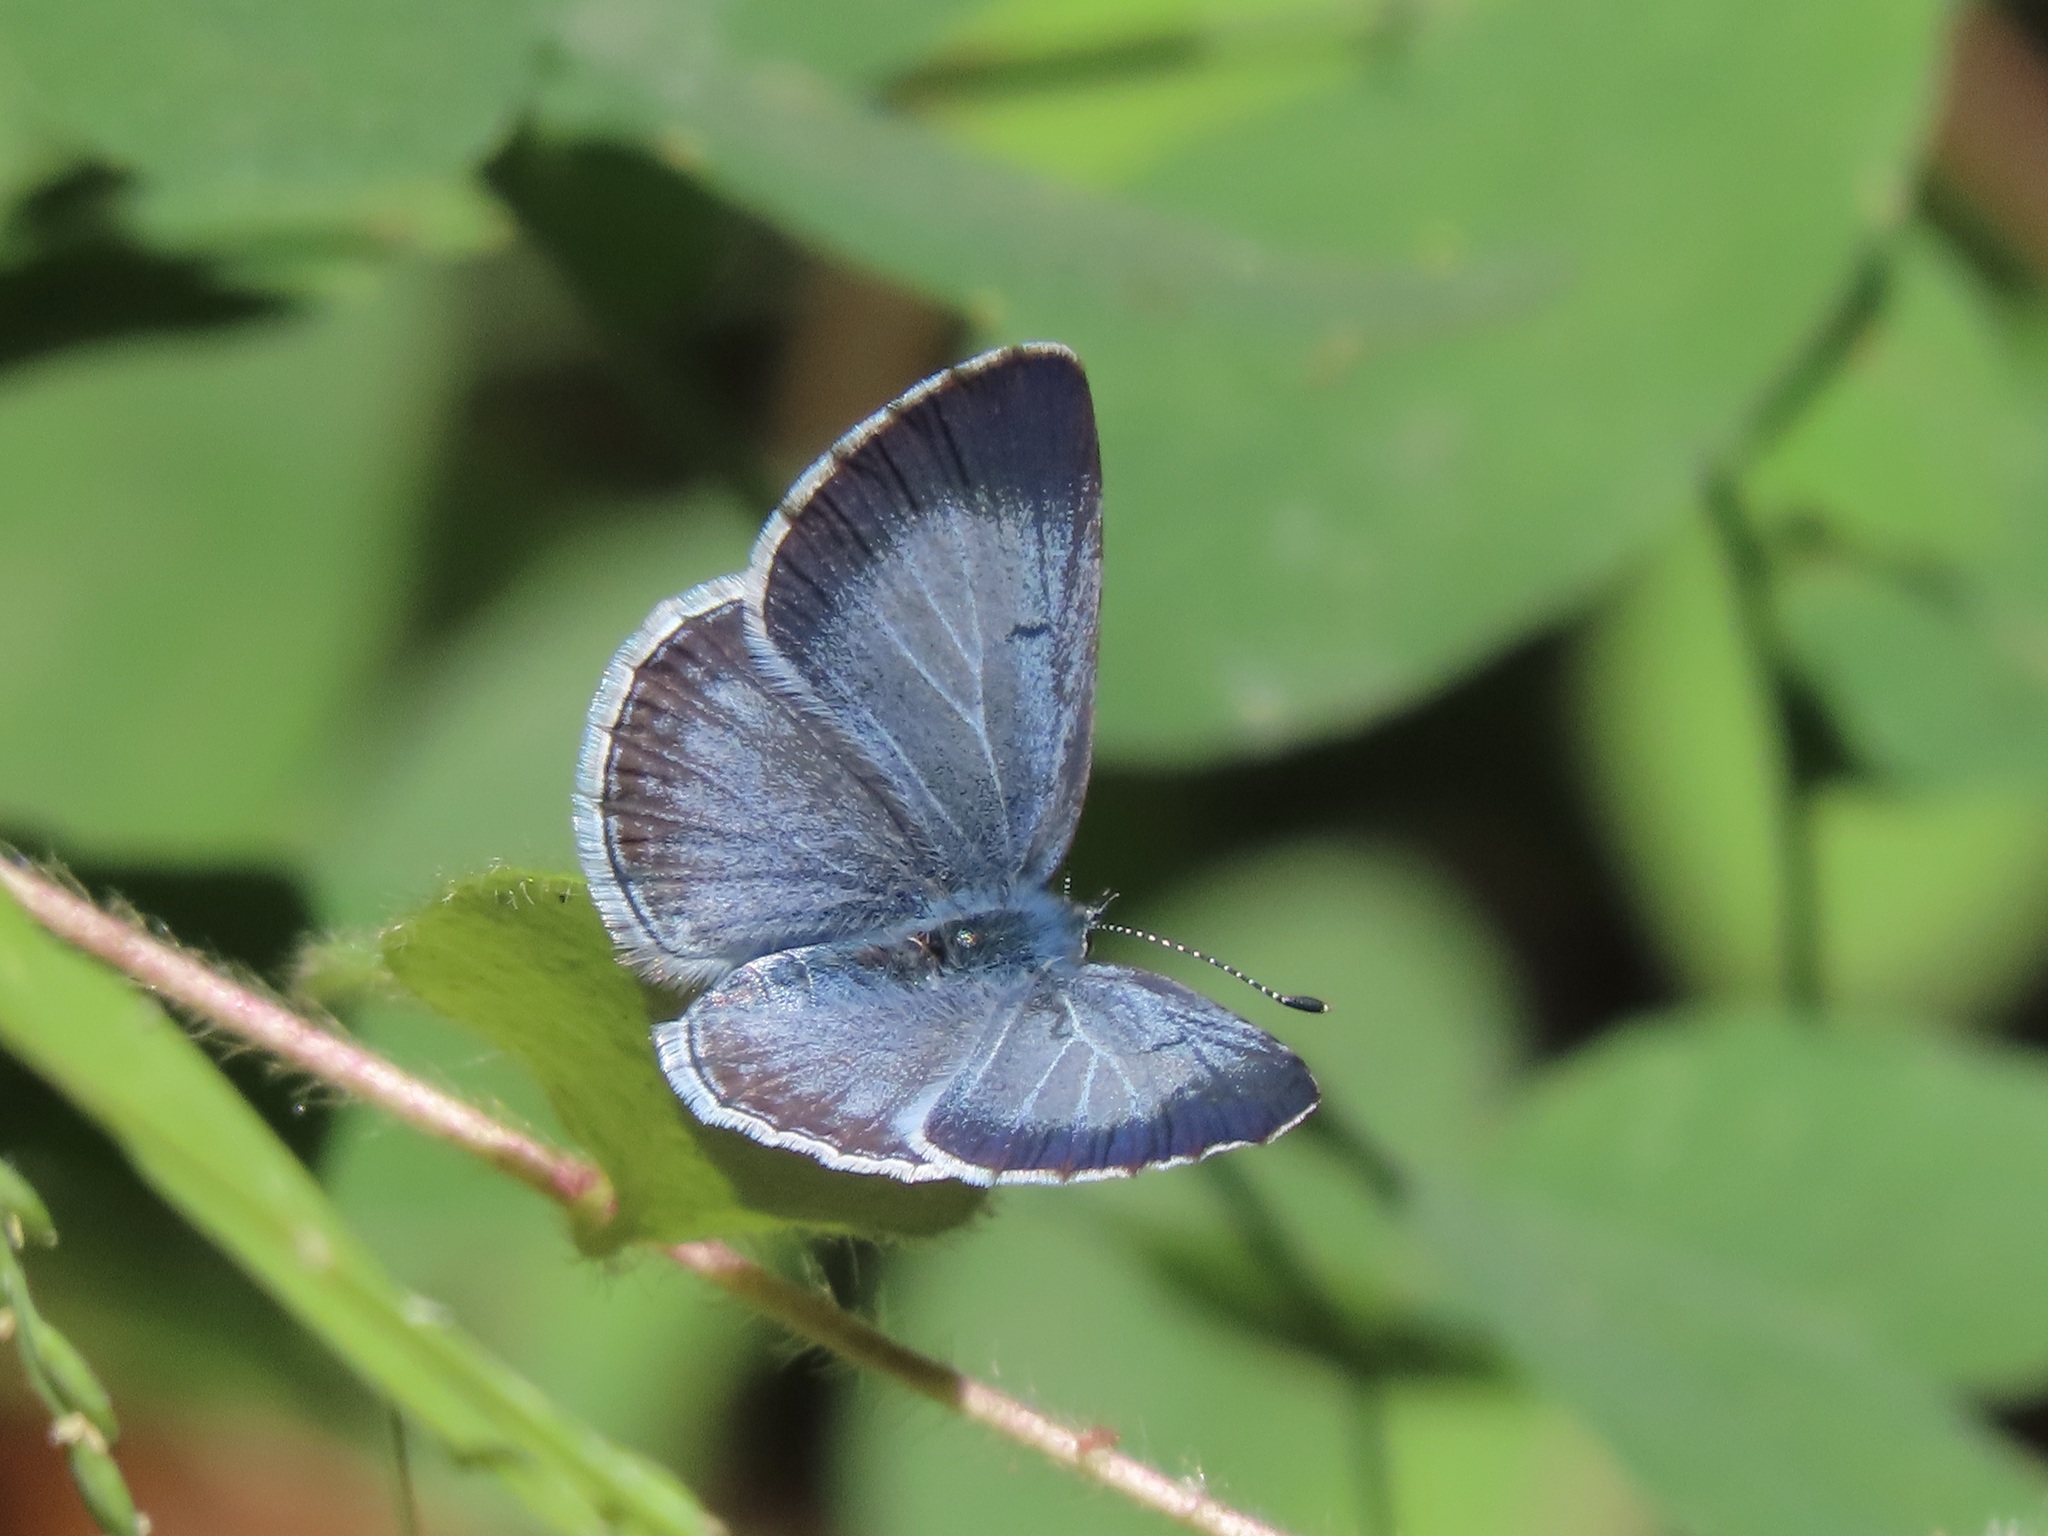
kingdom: Animalia
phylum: Arthropoda
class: Insecta
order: Lepidoptera
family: Lycaenidae
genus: Celastrina
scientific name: Celastrina ladon
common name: Spring azure
